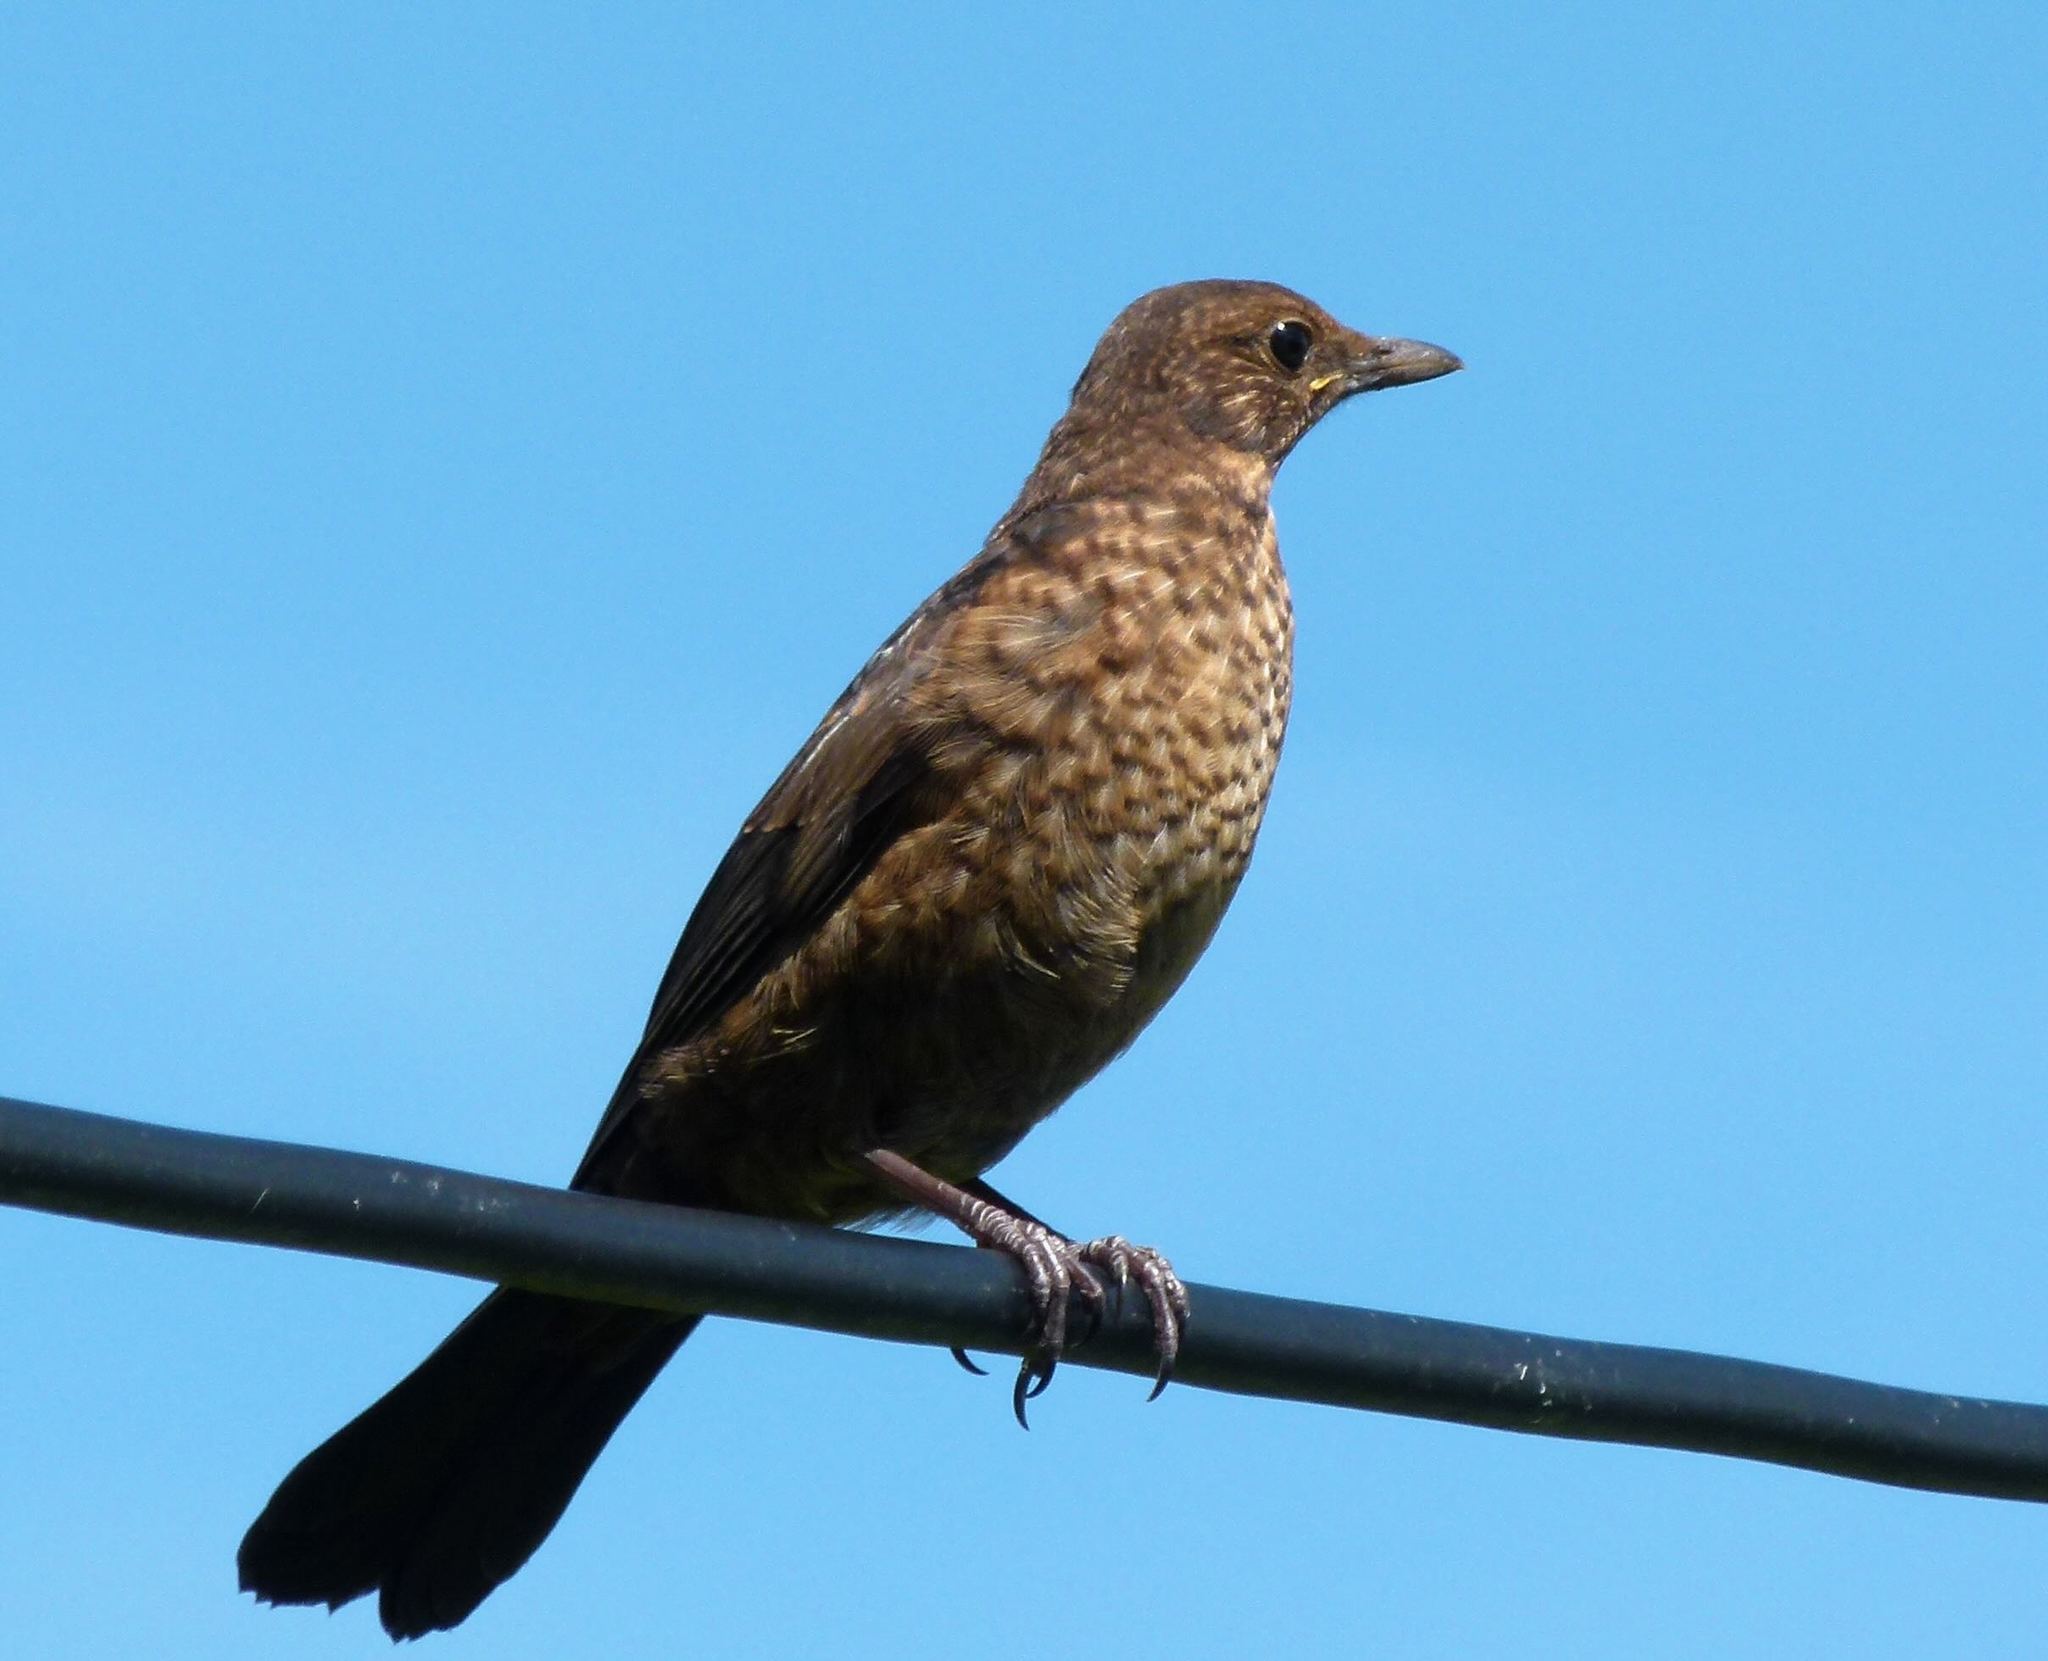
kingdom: Animalia
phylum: Chordata
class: Aves
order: Passeriformes
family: Turdidae
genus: Turdus
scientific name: Turdus merula
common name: Common blackbird
